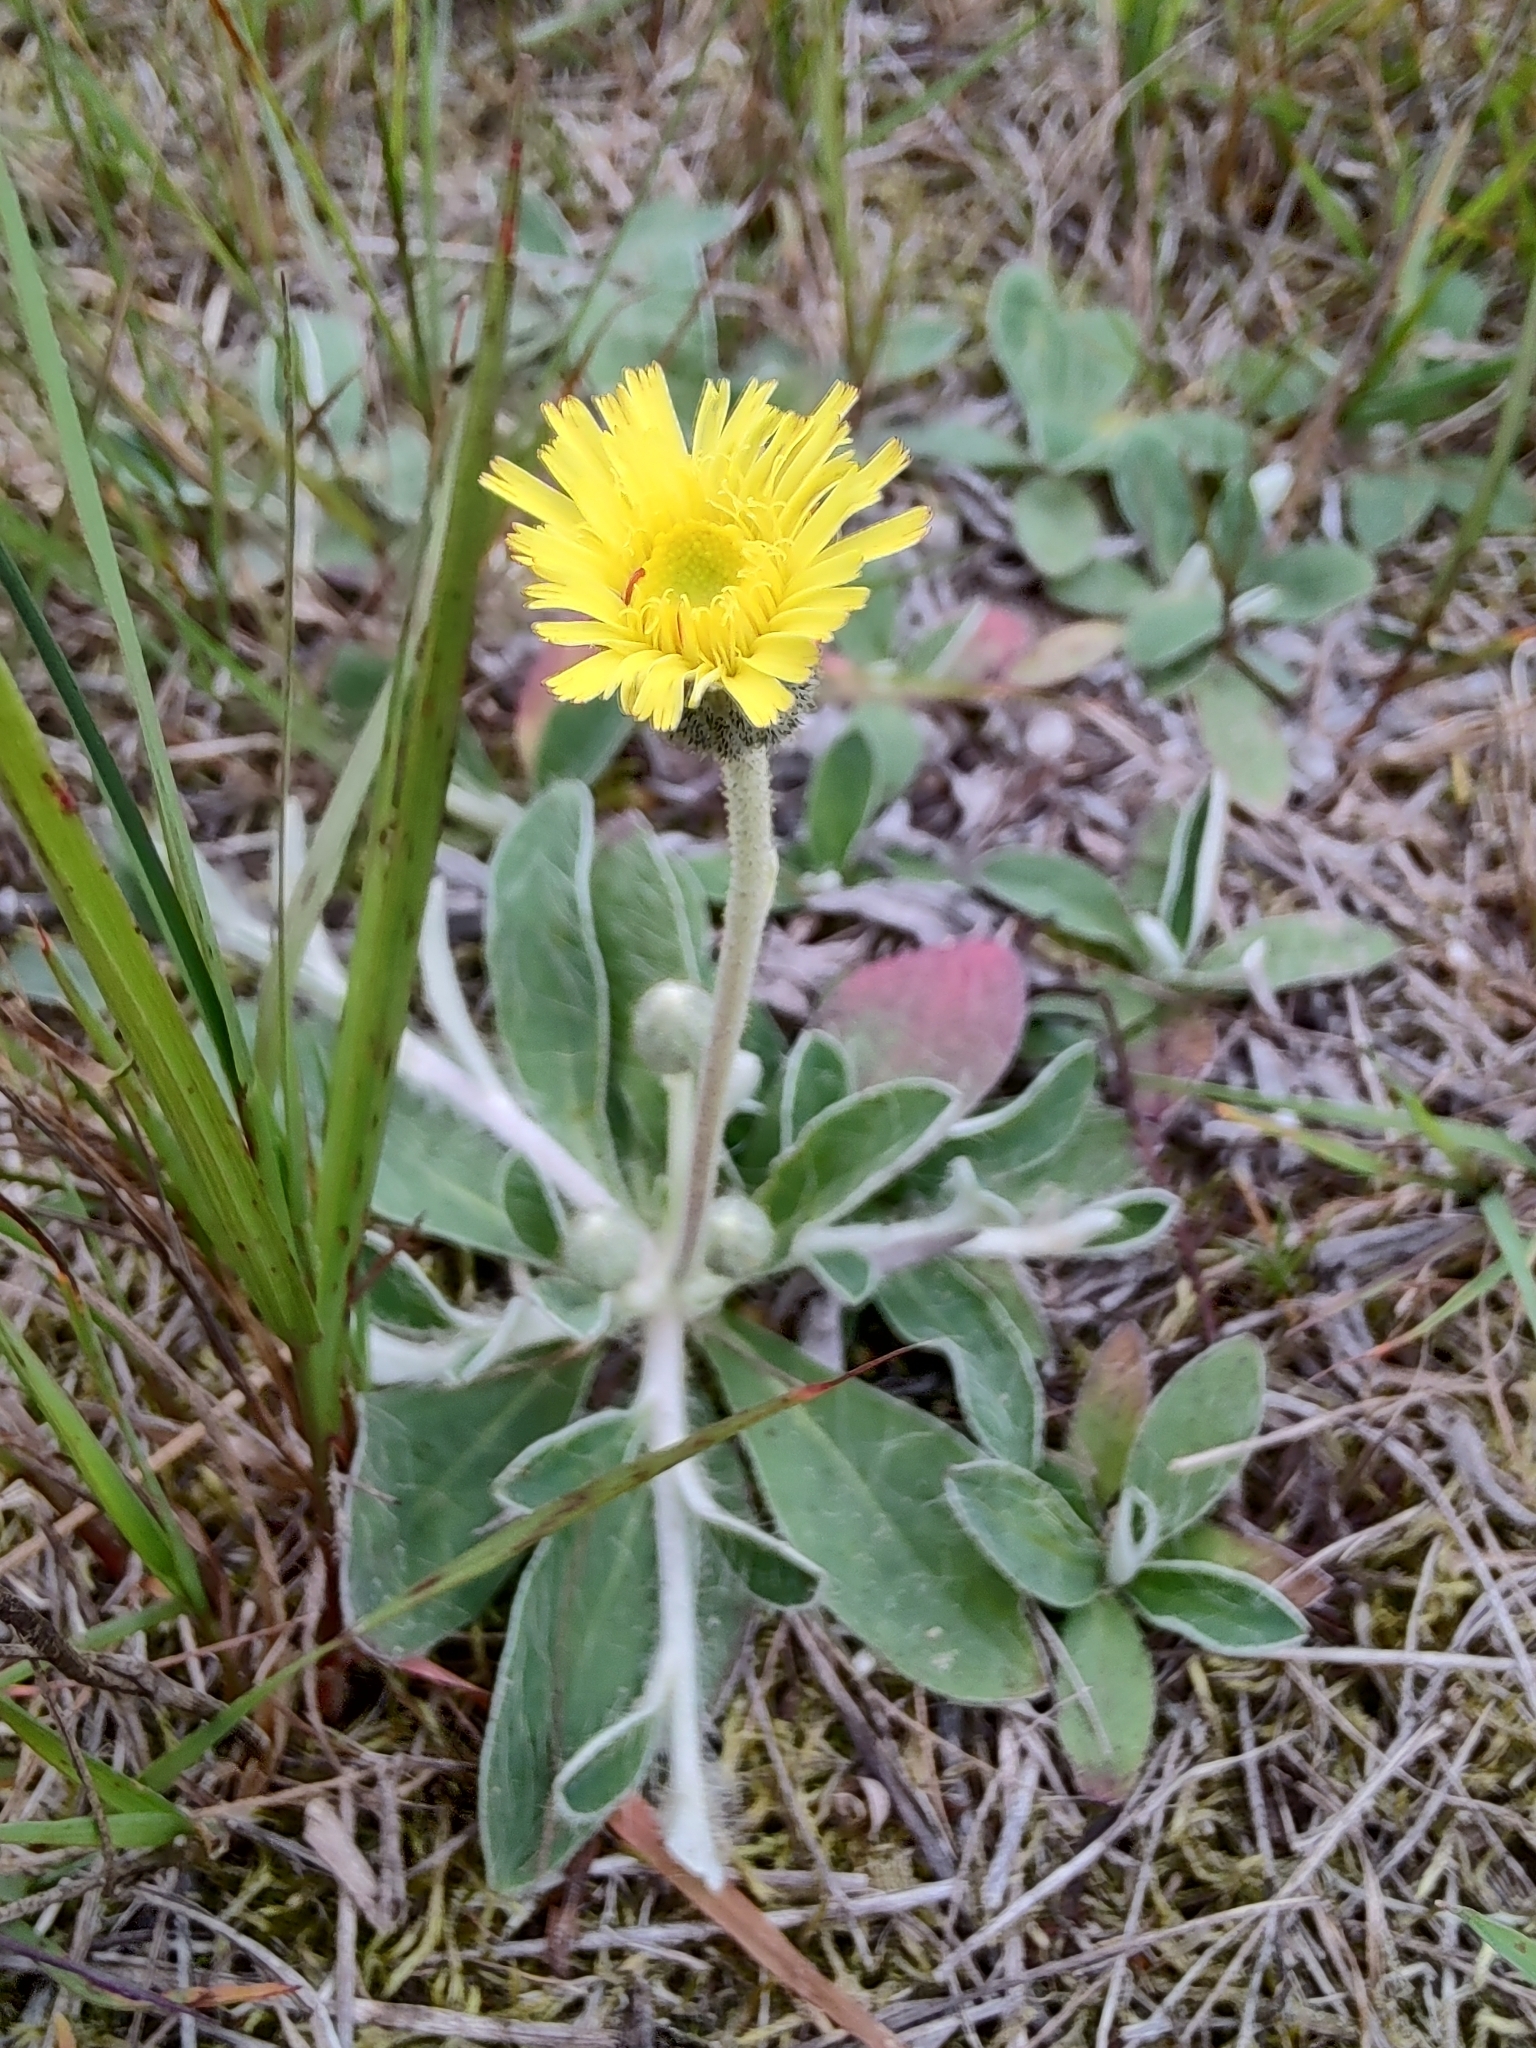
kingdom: Plantae
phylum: Tracheophyta
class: Magnoliopsida
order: Asterales
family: Asteraceae
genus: Pilosella
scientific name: Pilosella officinarum
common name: Mouse-ear hawkweed
